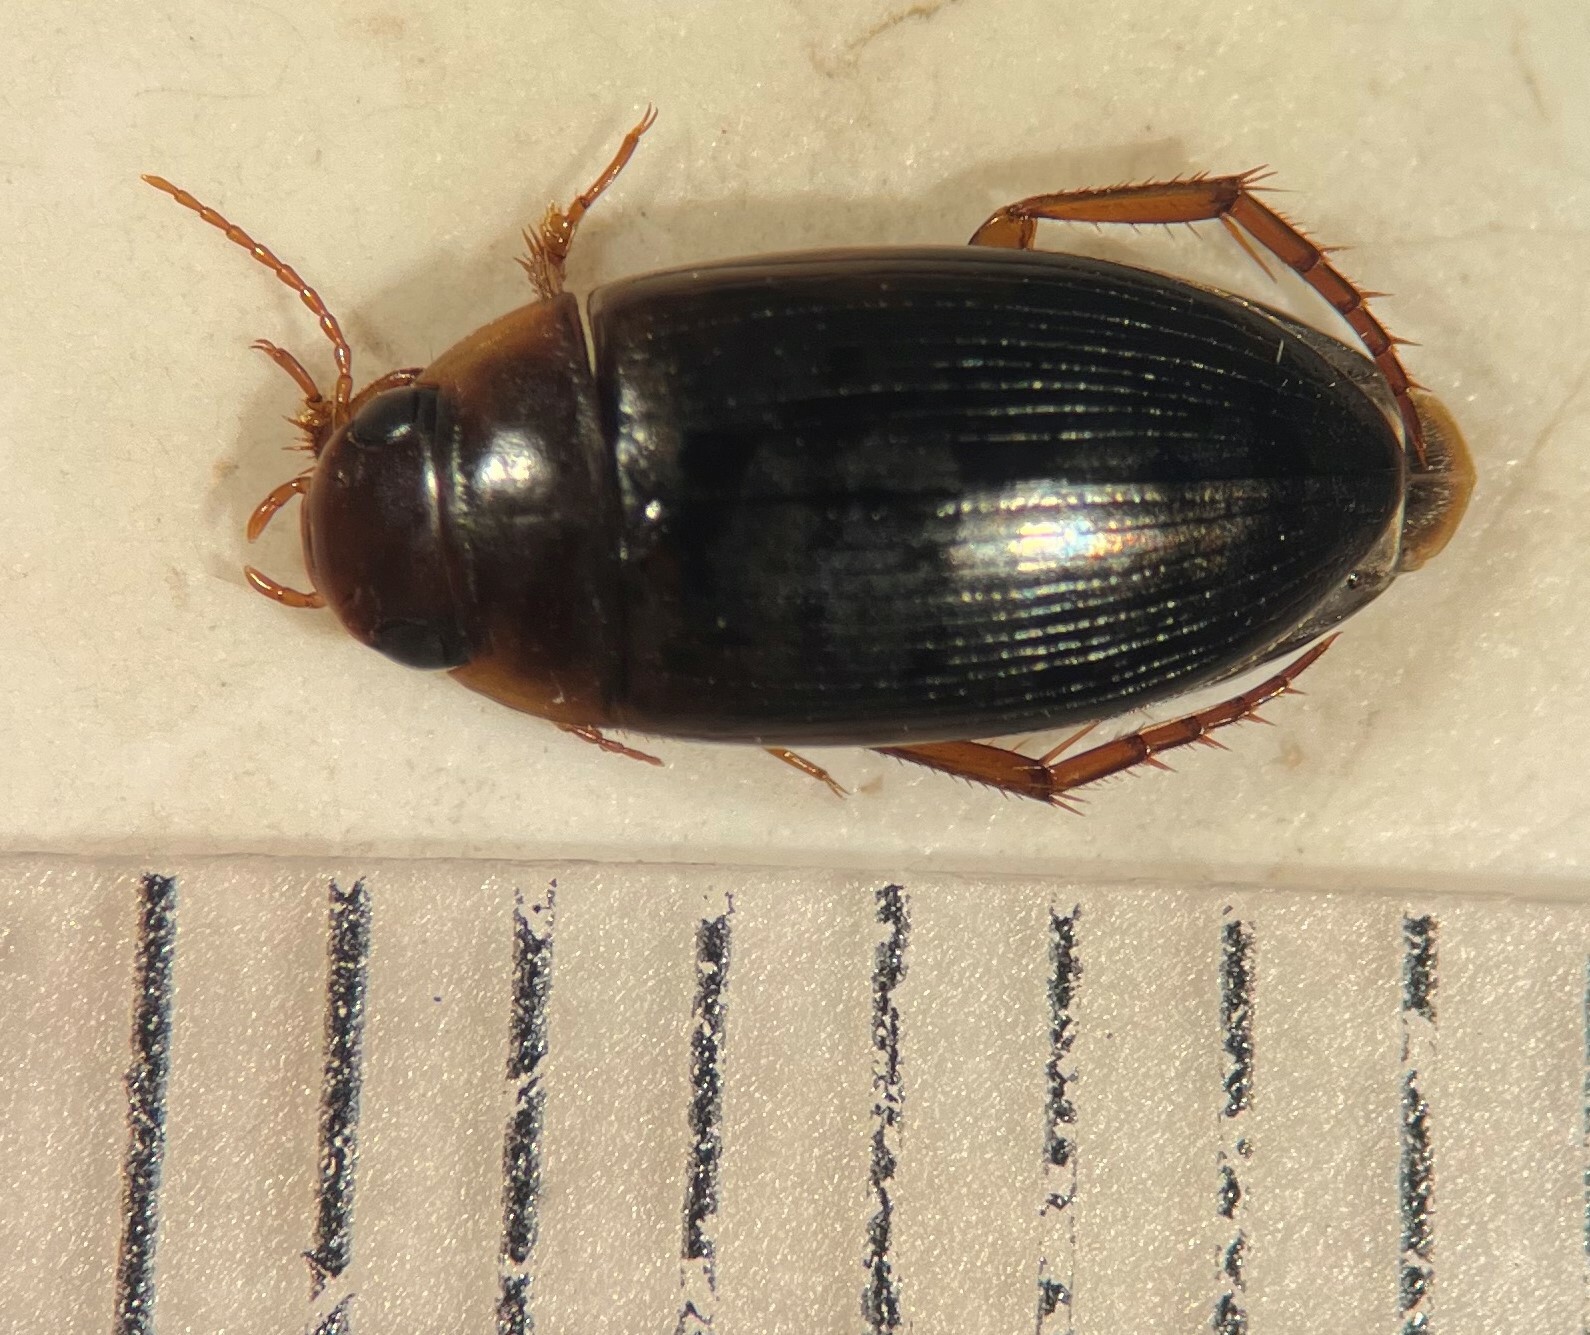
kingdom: Animalia
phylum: Arthropoda
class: Insecta
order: Coleoptera
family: Dytiscidae
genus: Copelatus
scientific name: Copelatus distinctus
